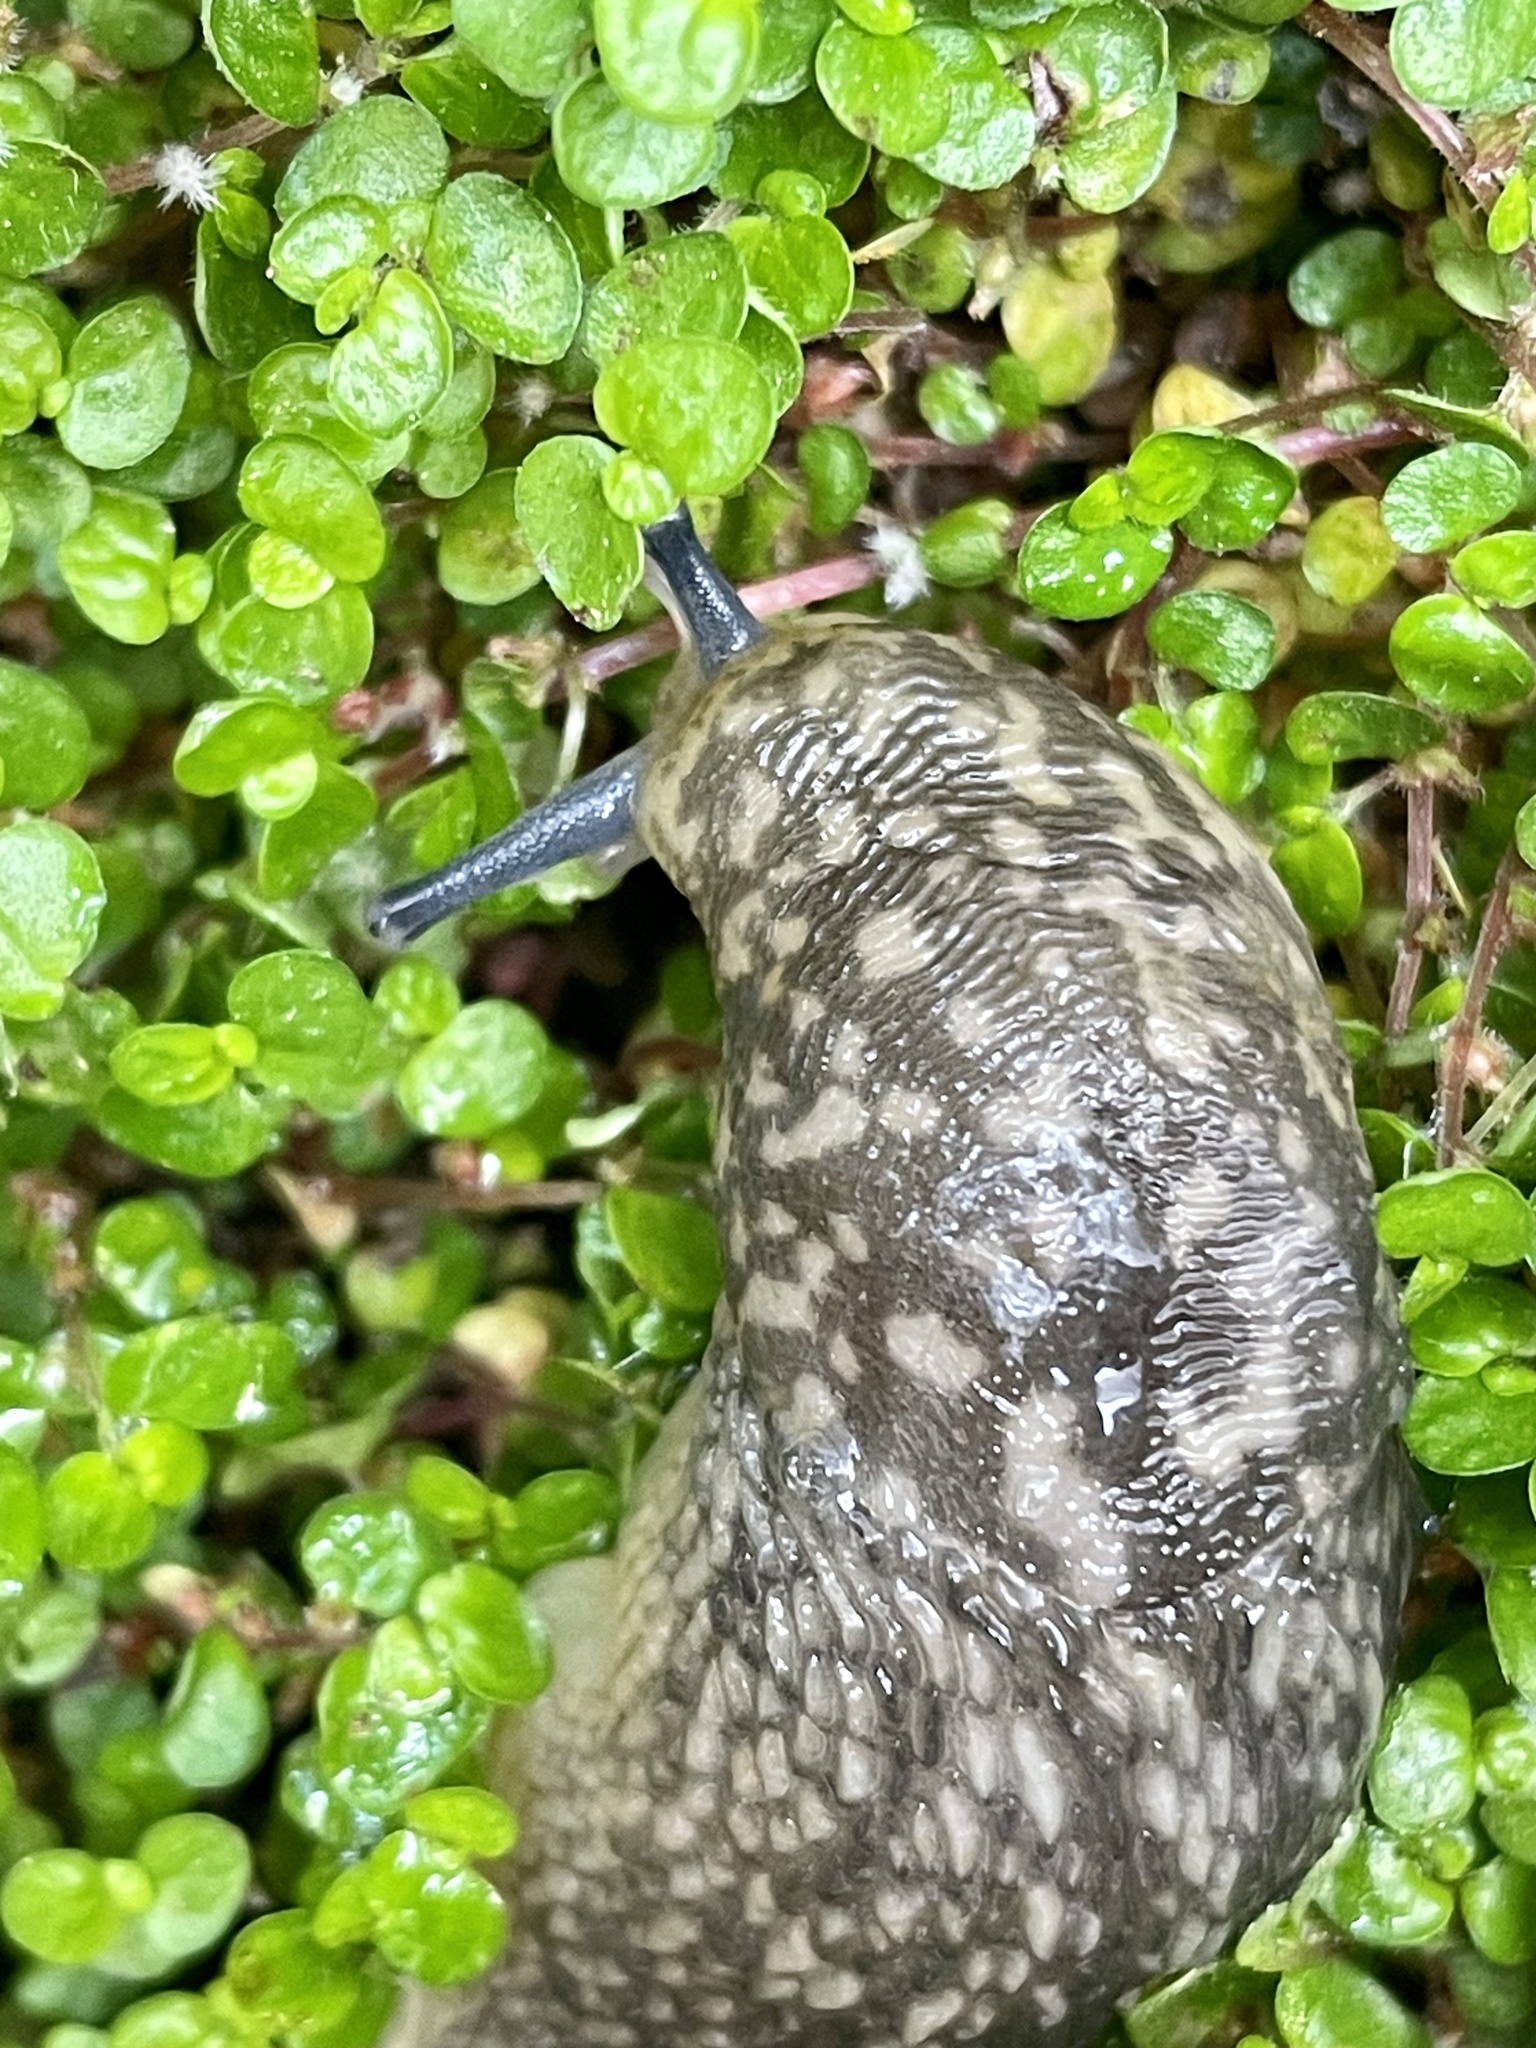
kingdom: Animalia
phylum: Mollusca
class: Gastropoda
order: Stylommatophora
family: Limacidae
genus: Limacus
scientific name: Limacus flavus
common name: Yellow gardenslug
